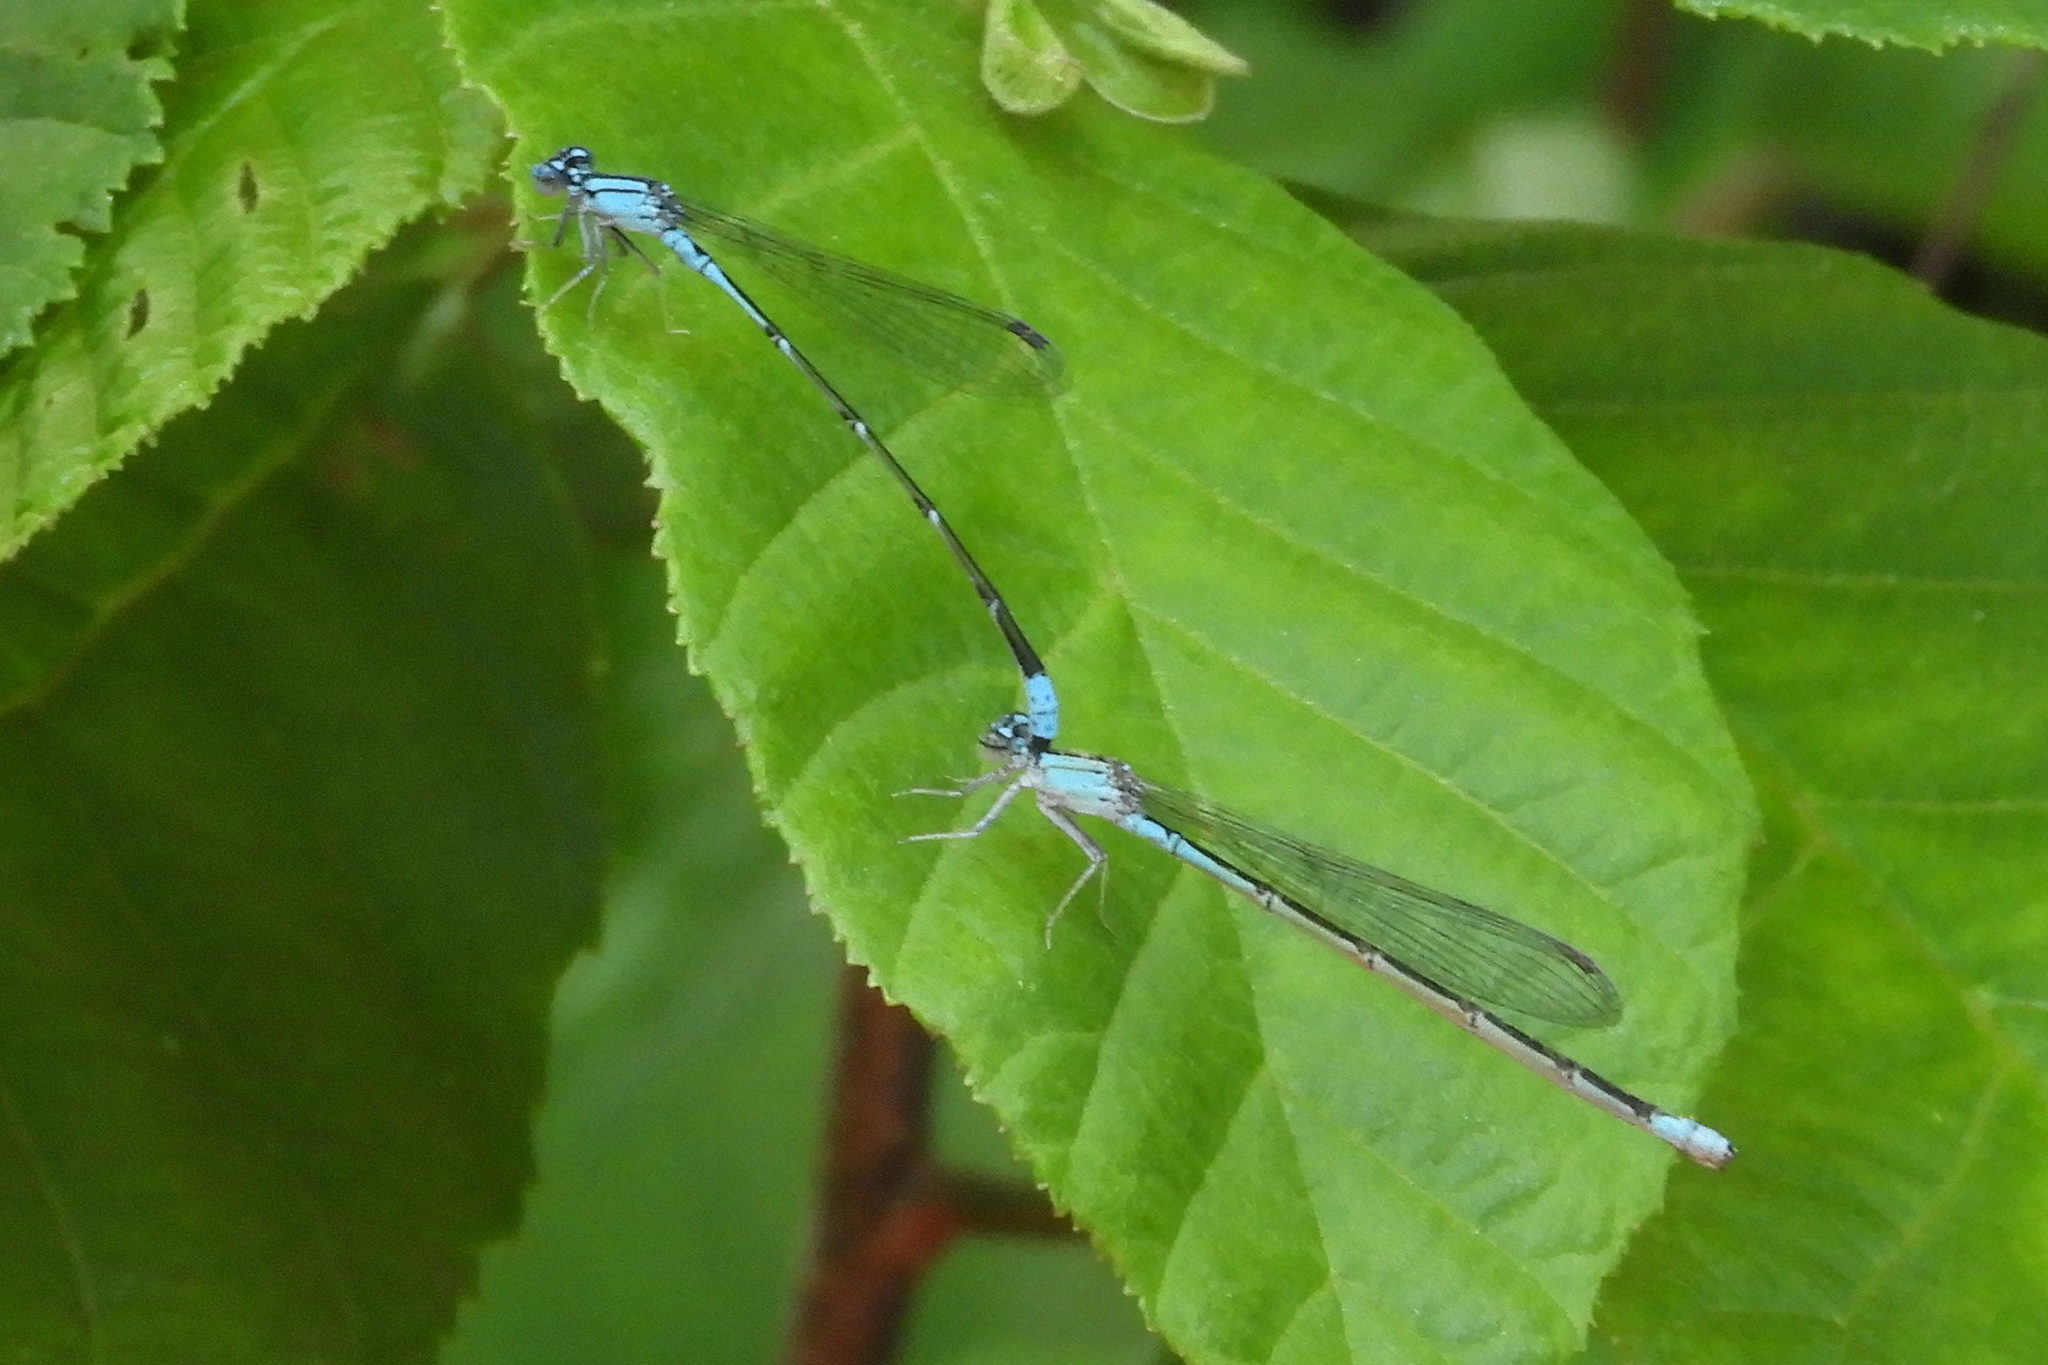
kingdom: Animalia
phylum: Arthropoda
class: Insecta
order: Odonata
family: Coenagrionidae
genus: Enallagma
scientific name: Enallagma traviatum
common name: Slender bluet
